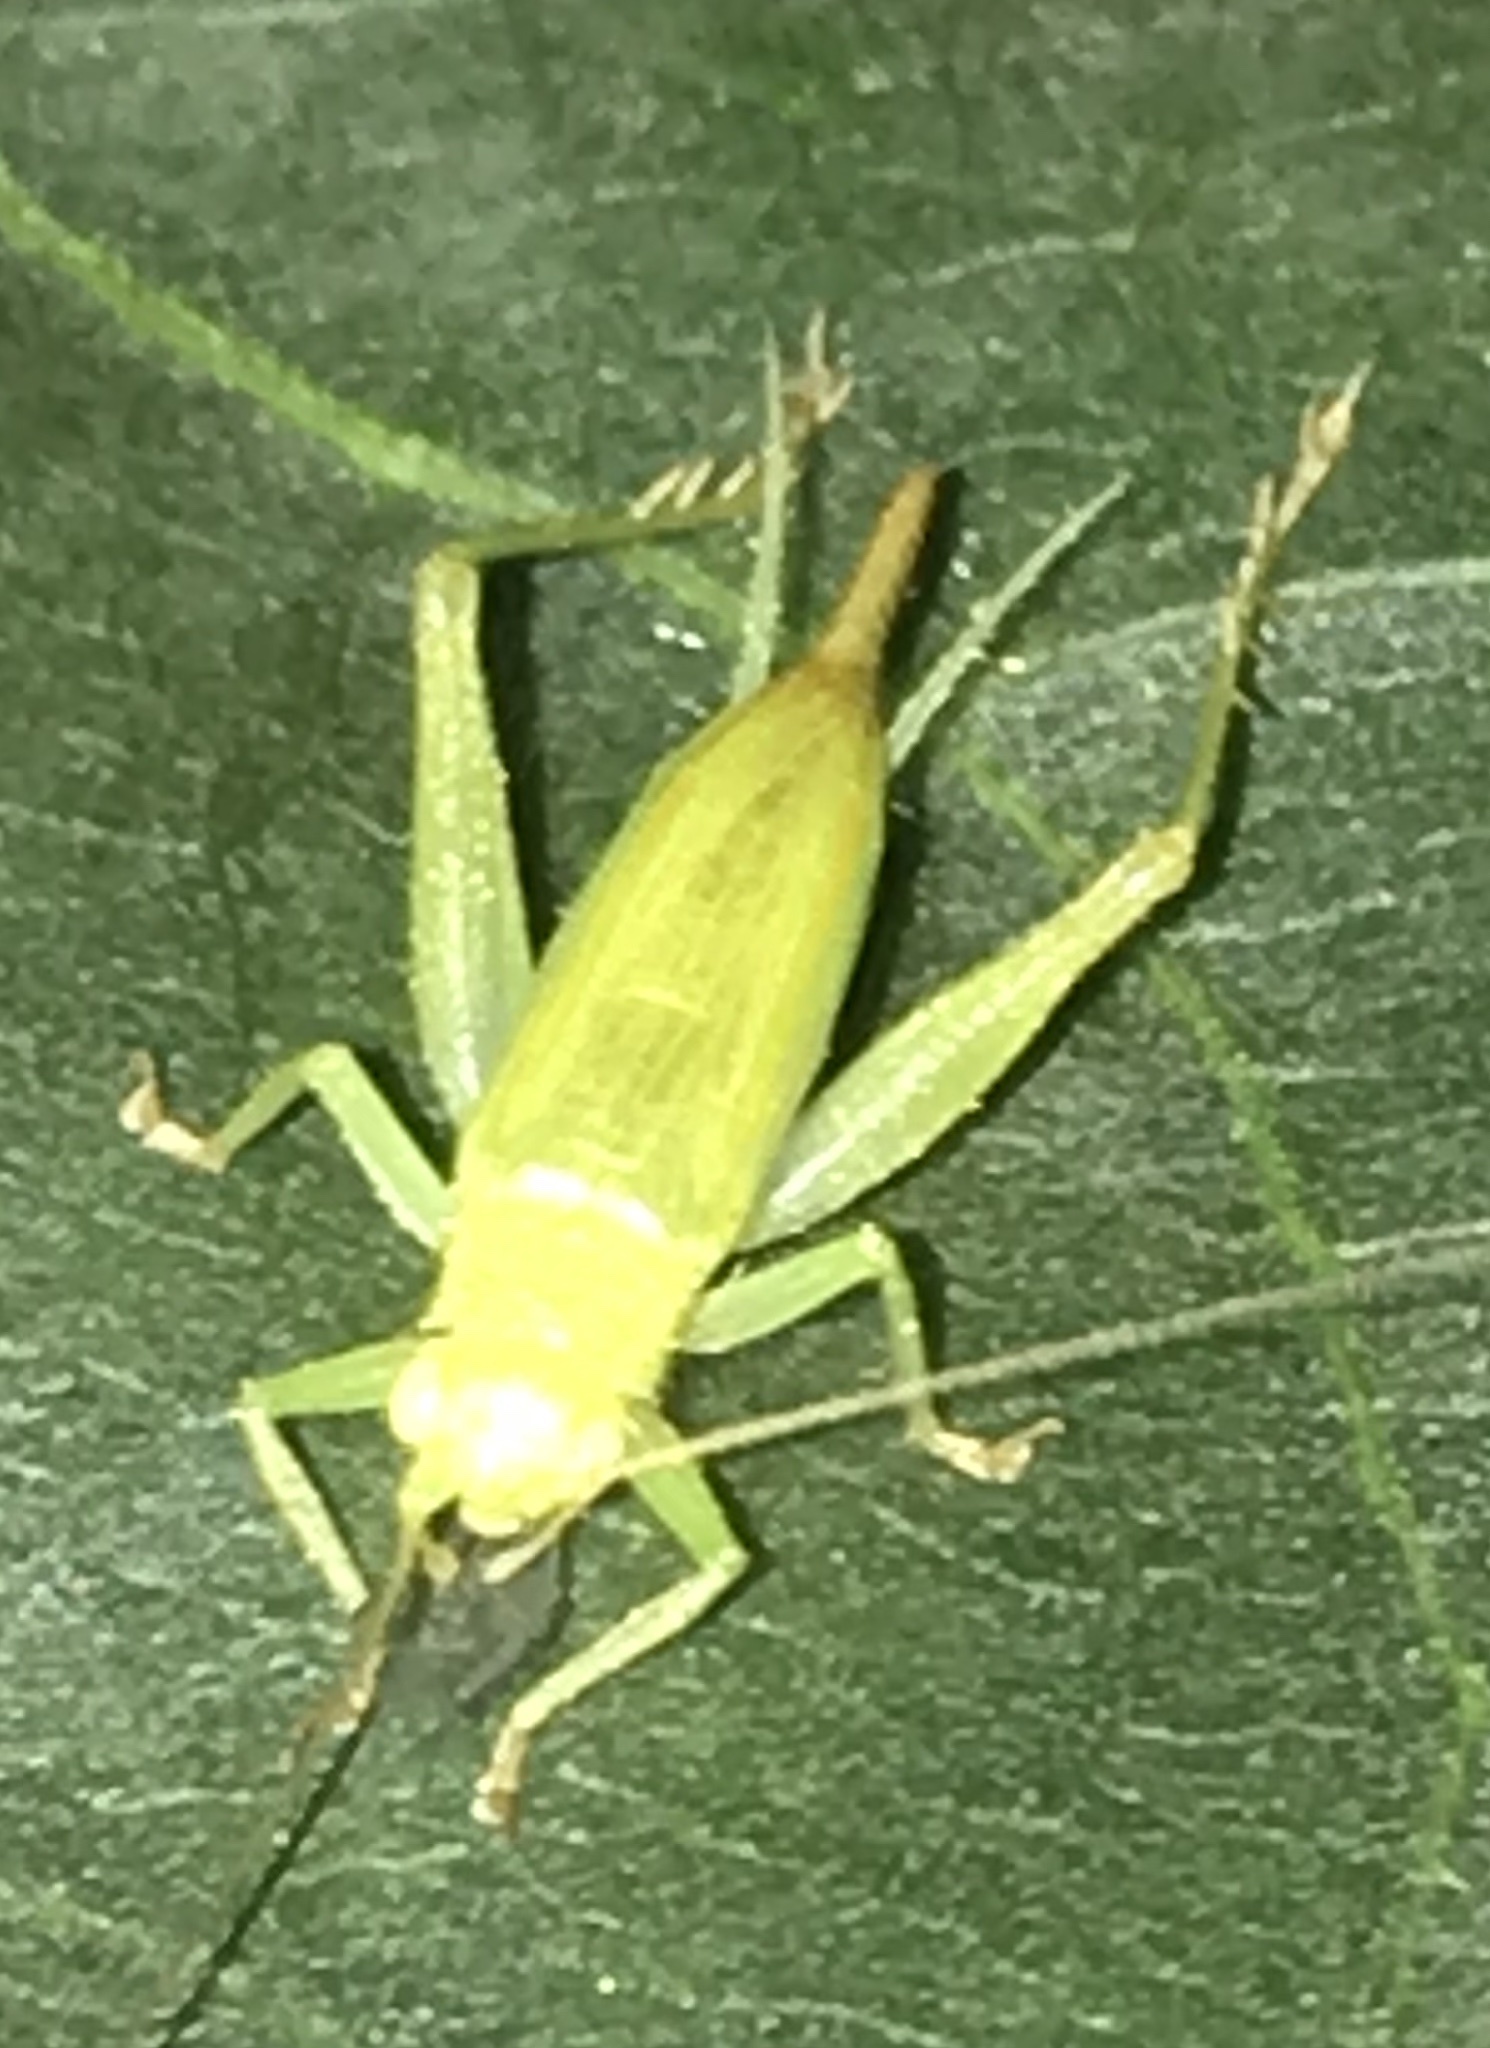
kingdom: Animalia
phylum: Arthropoda
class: Insecta
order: Orthoptera
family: Trigonidiidae
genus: Cyrtoxipha
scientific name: Cyrtoxipha columbiana
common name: Columbian trig
